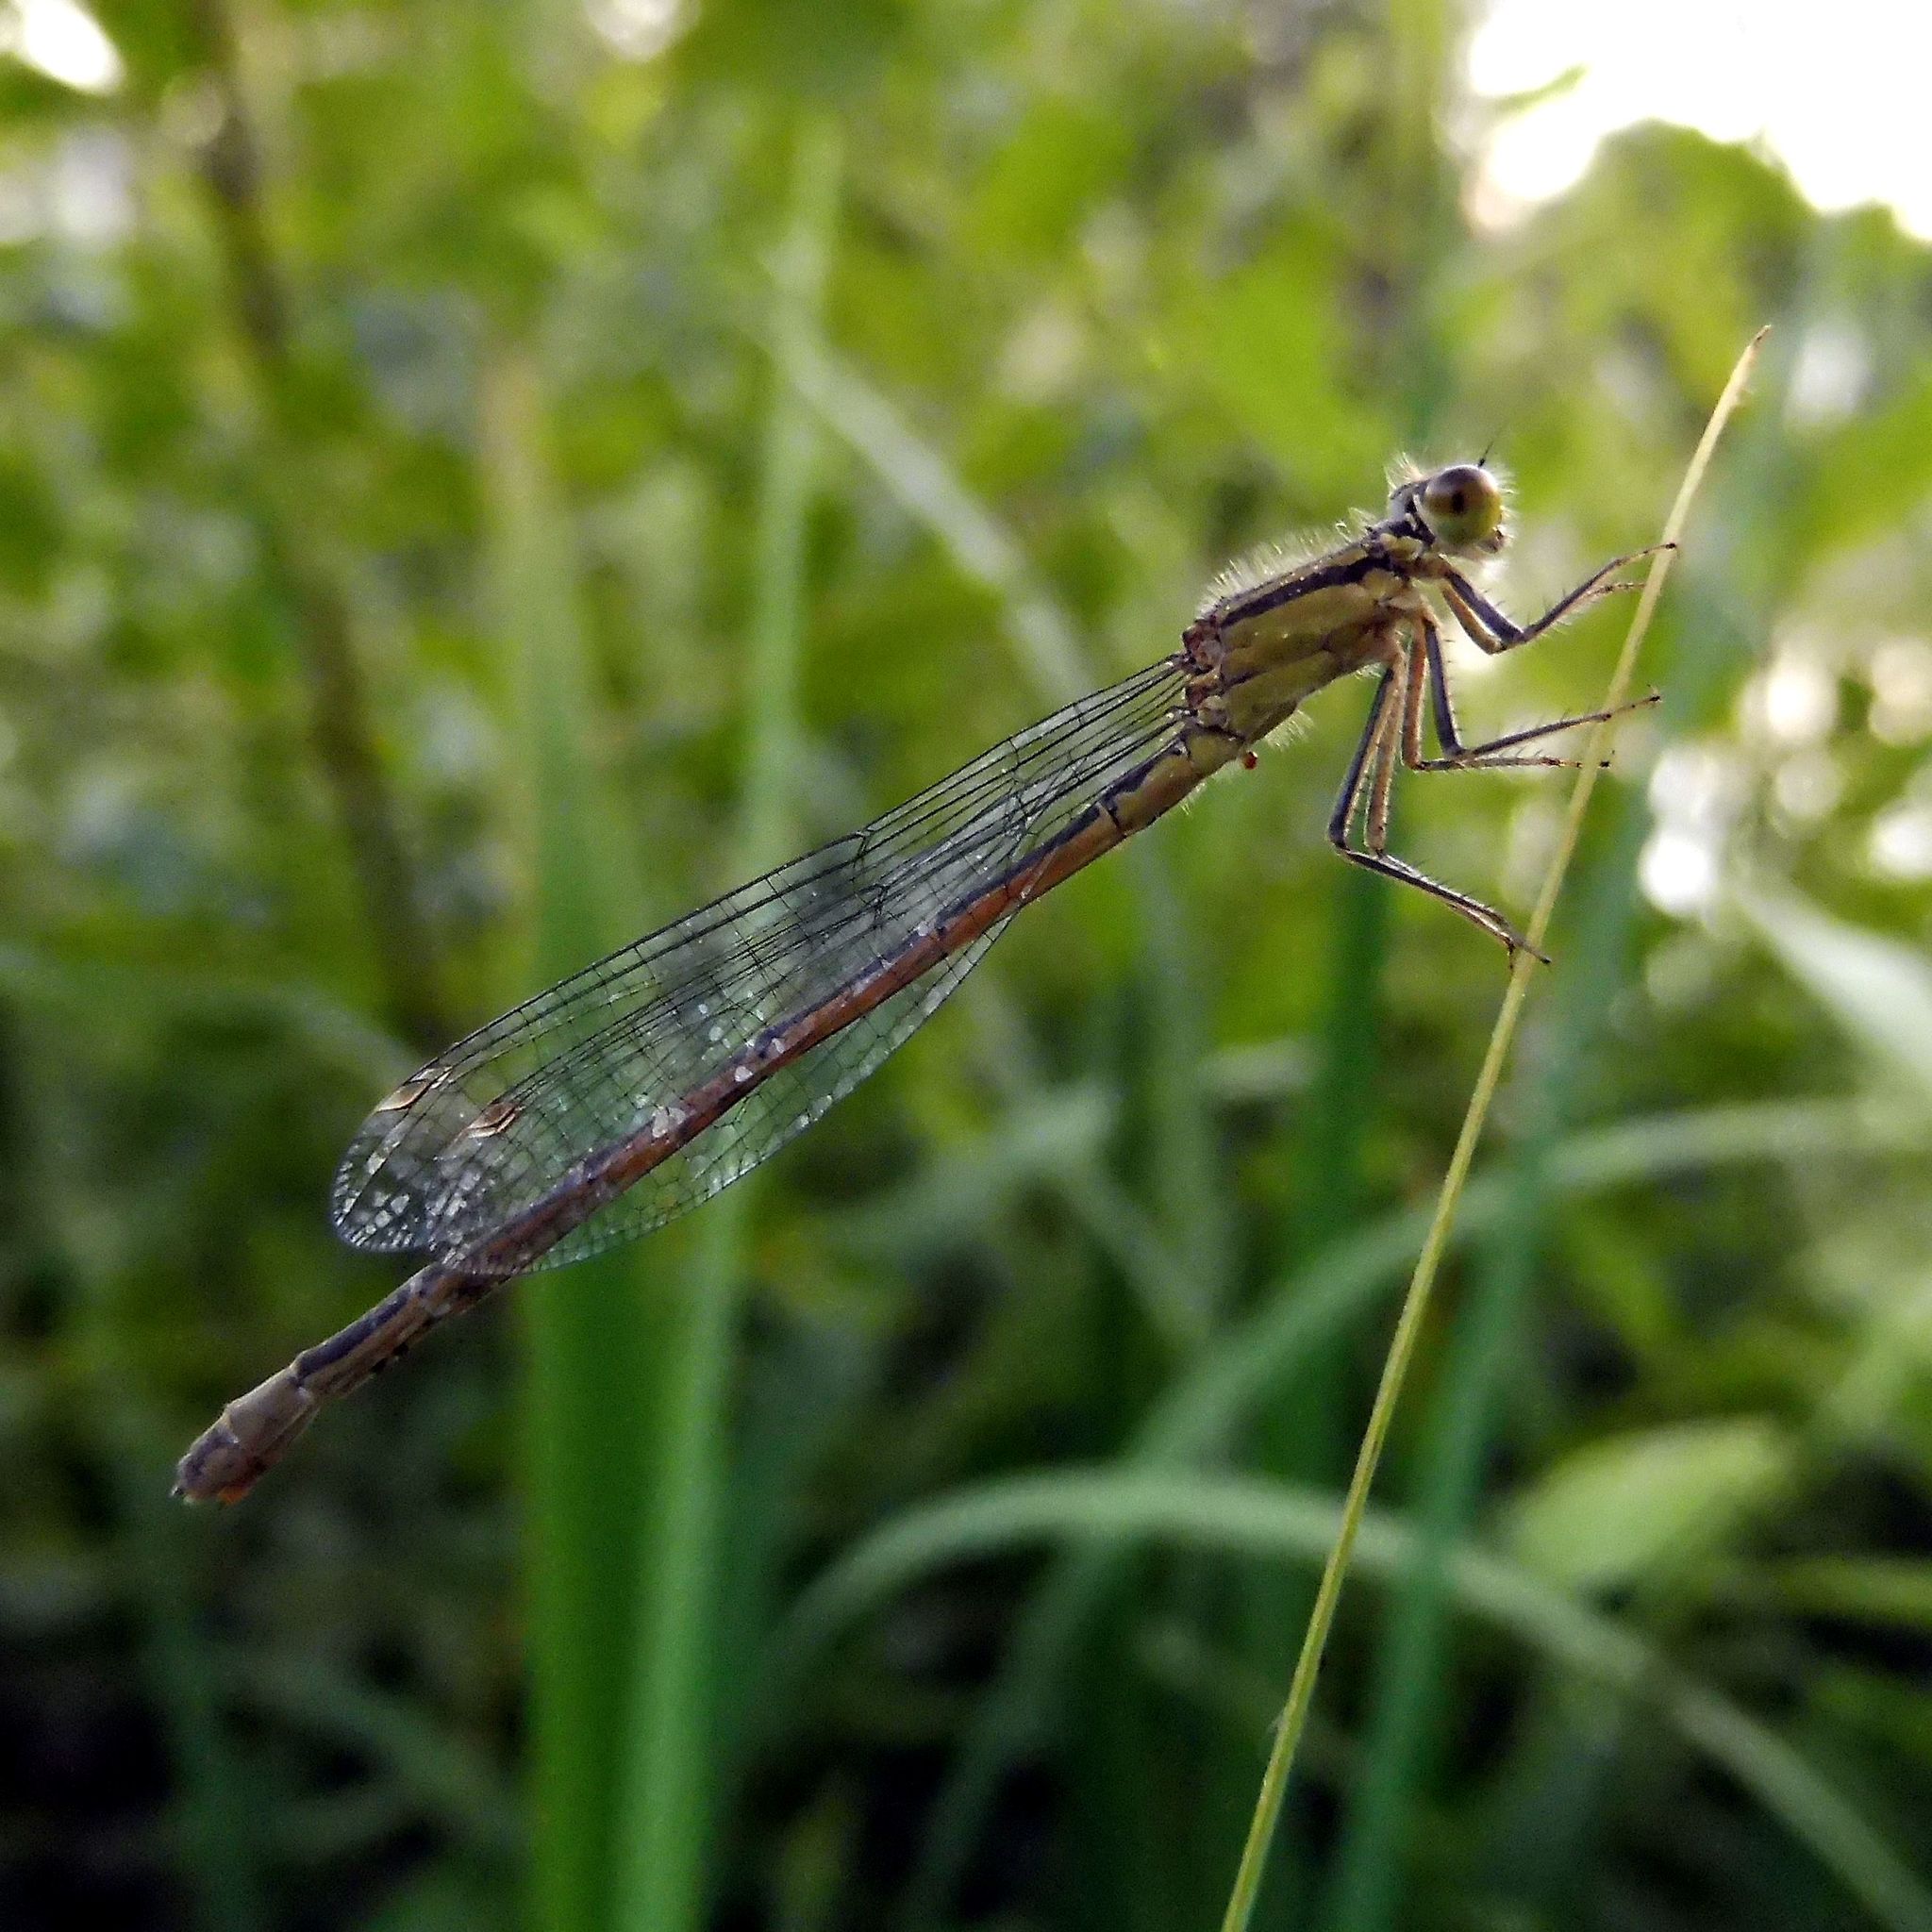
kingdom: Animalia
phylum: Arthropoda
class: Insecta
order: Odonata
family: Coenagrionidae
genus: Ischnura
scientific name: Ischnura elegans
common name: Blue-tailed damselfly
